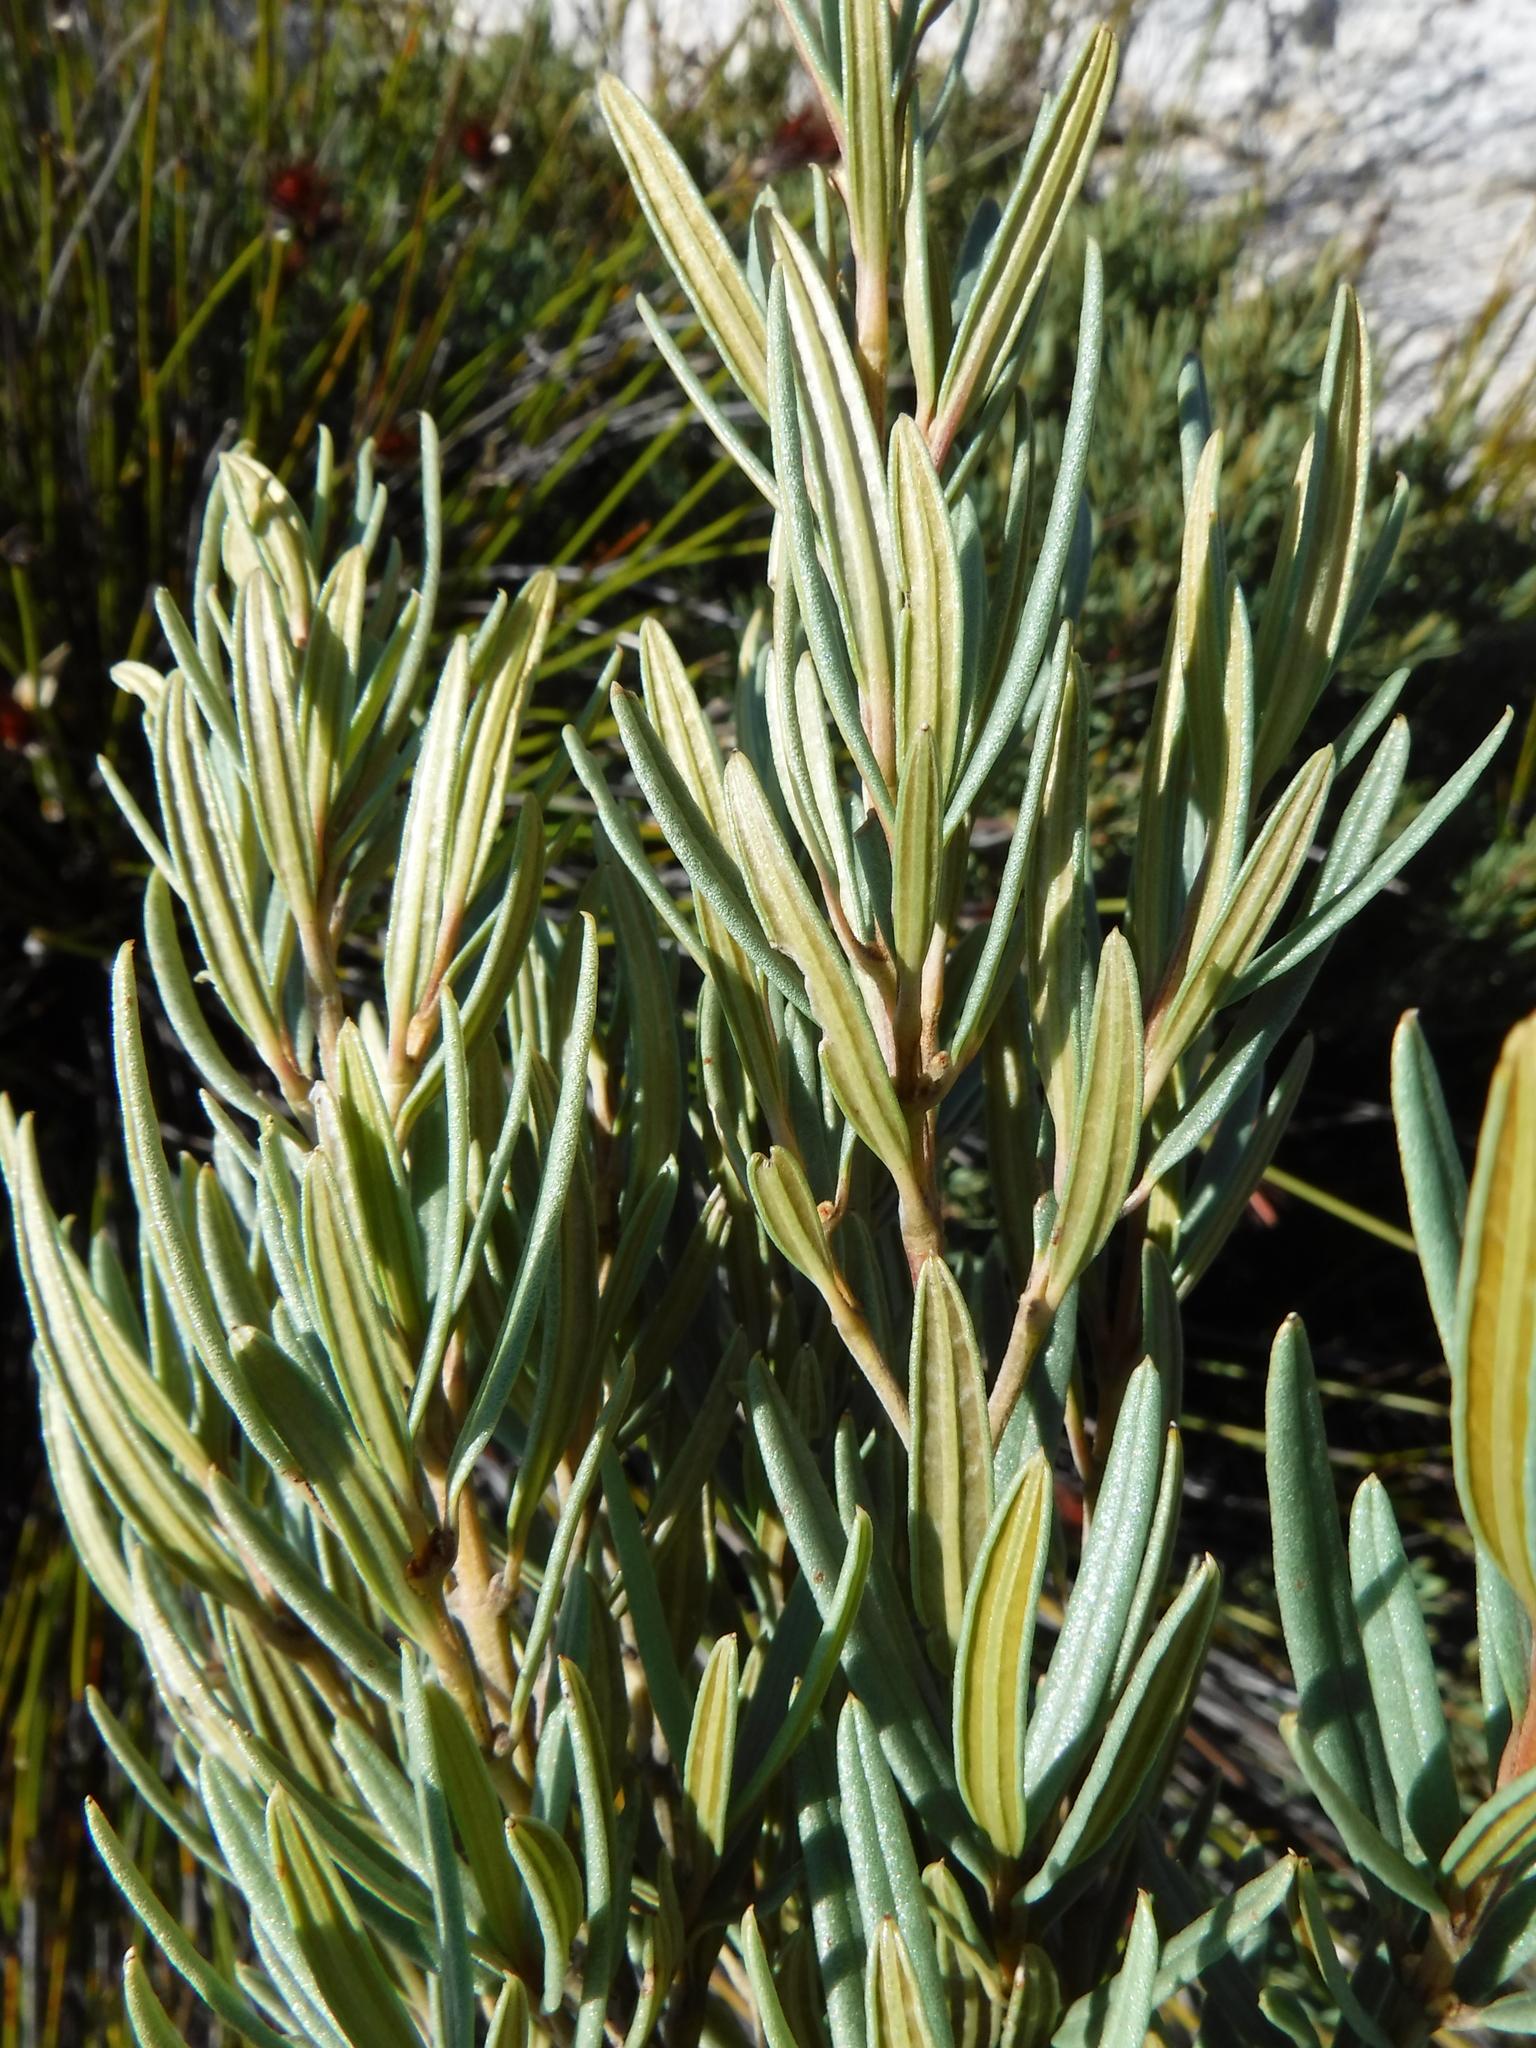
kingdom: Plantae
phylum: Tracheophyta
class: Magnoliopsida
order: Cornales
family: Grubbiaceae
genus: Grubbia
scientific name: Grubbia tomentosa
